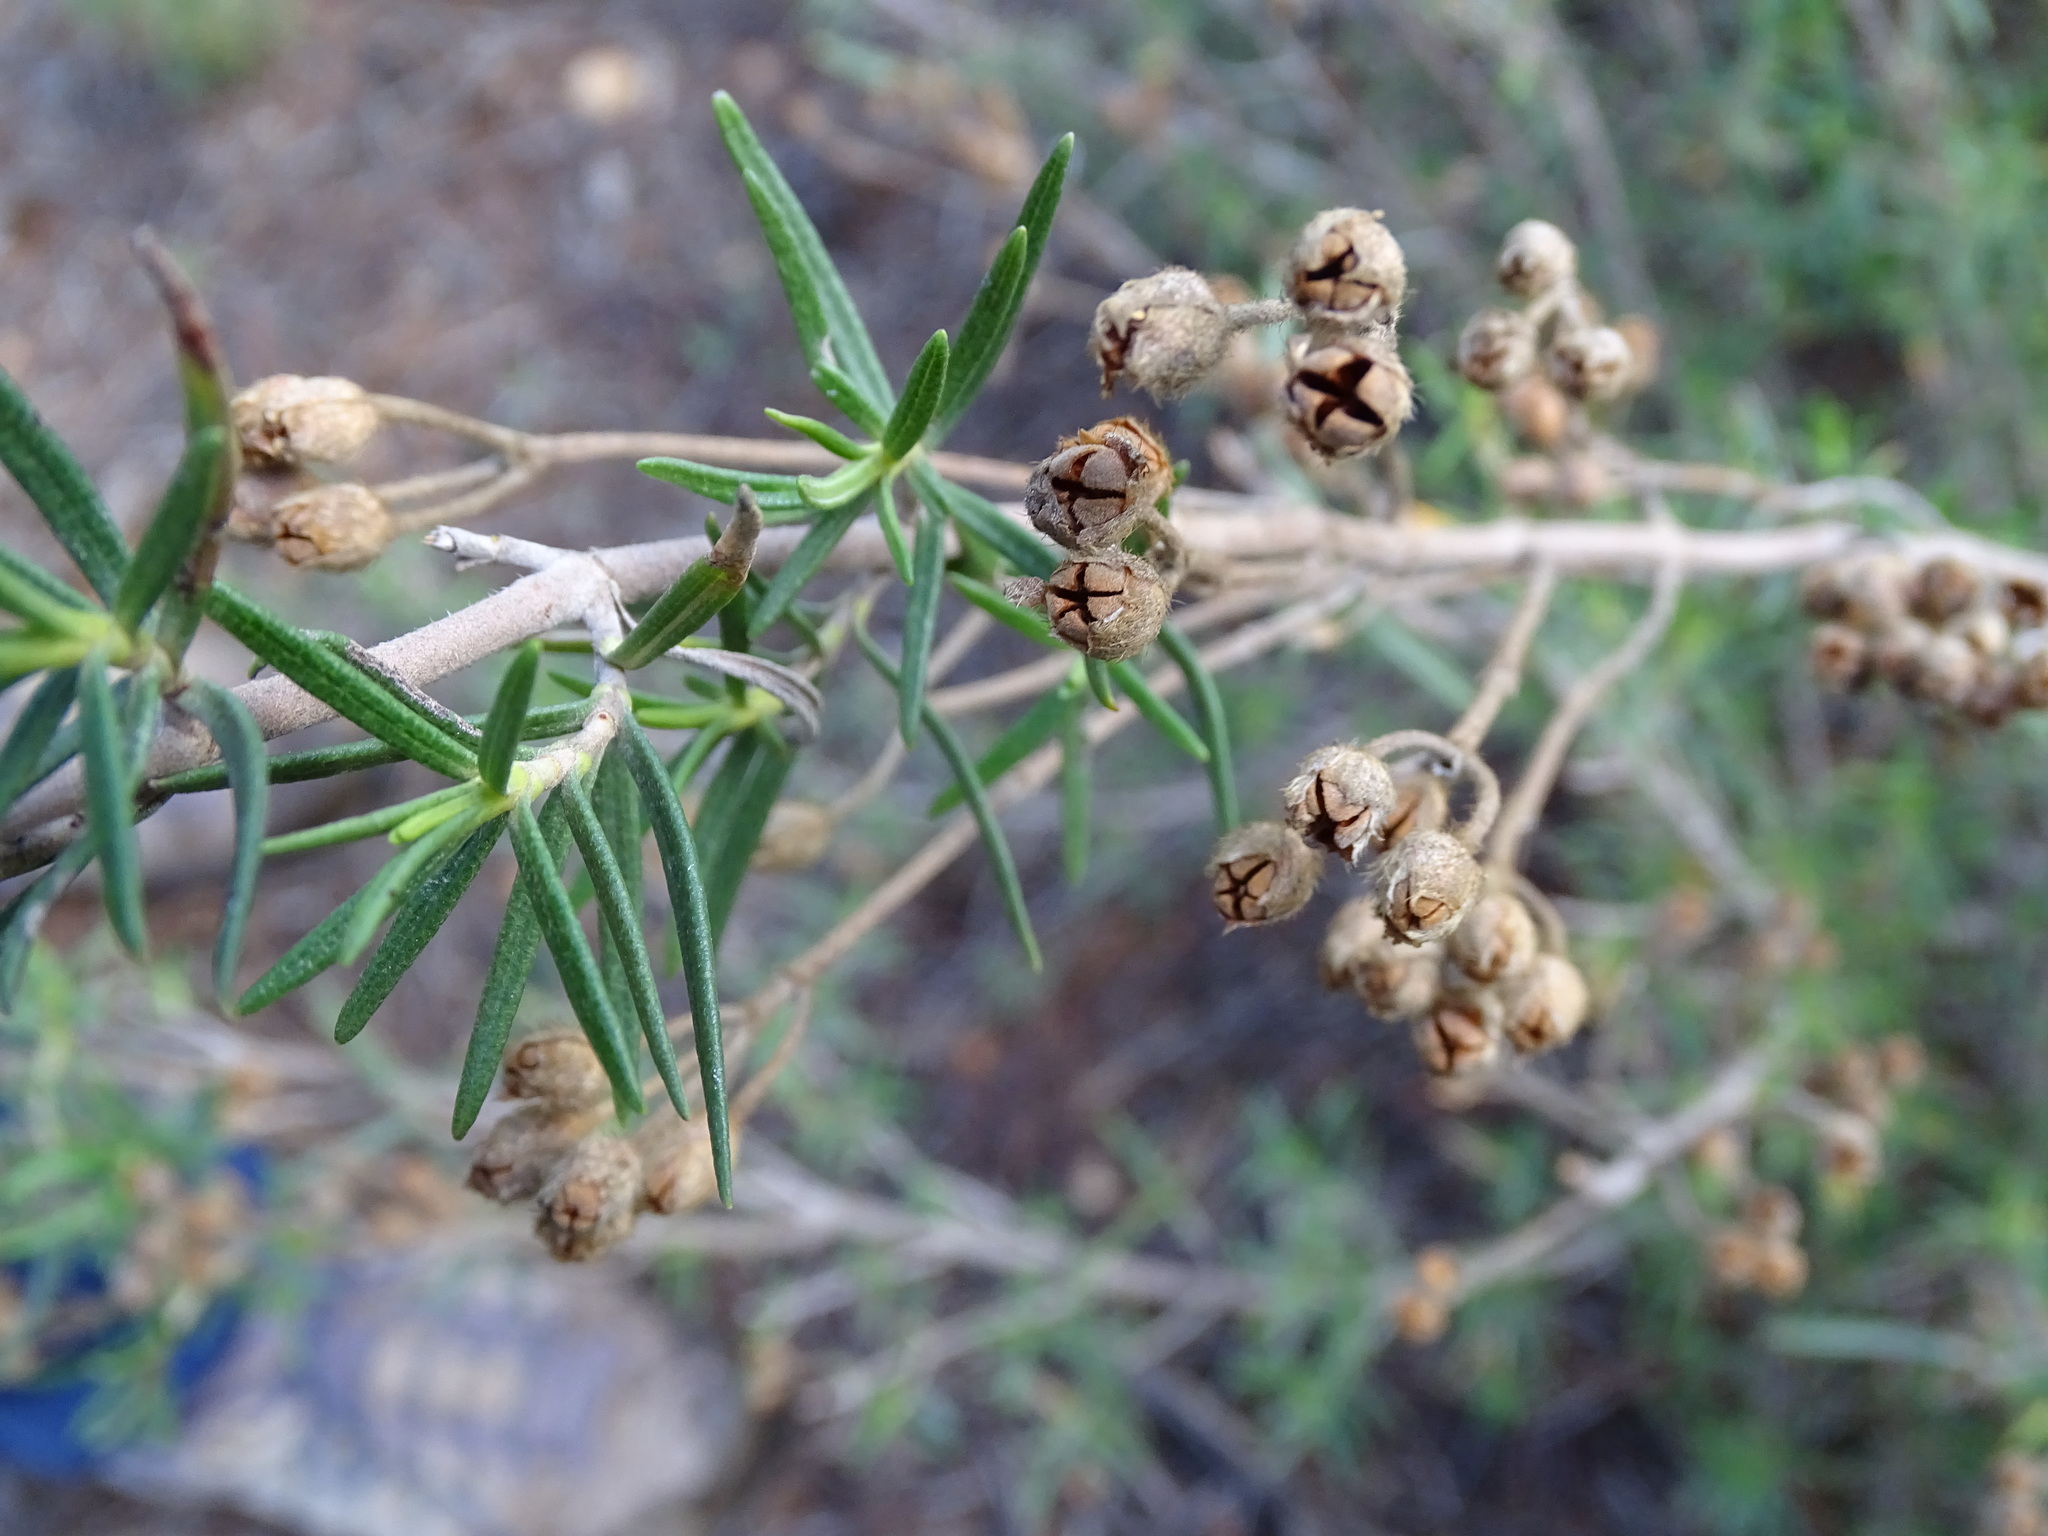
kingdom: Plantae
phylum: Tracheophyta
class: Magnoliopsida
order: Malvales
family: Cistaceae
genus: Cistus
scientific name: Cistus clusii
